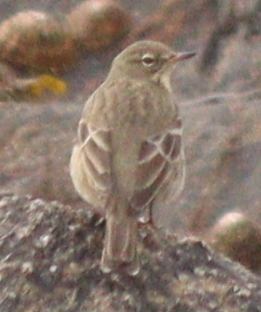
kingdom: Animalia
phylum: Chordata
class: Aves
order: Passeriformes
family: Motacillidae
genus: Anthus
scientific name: Anthus petrosus
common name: Eurasian rock pipit
